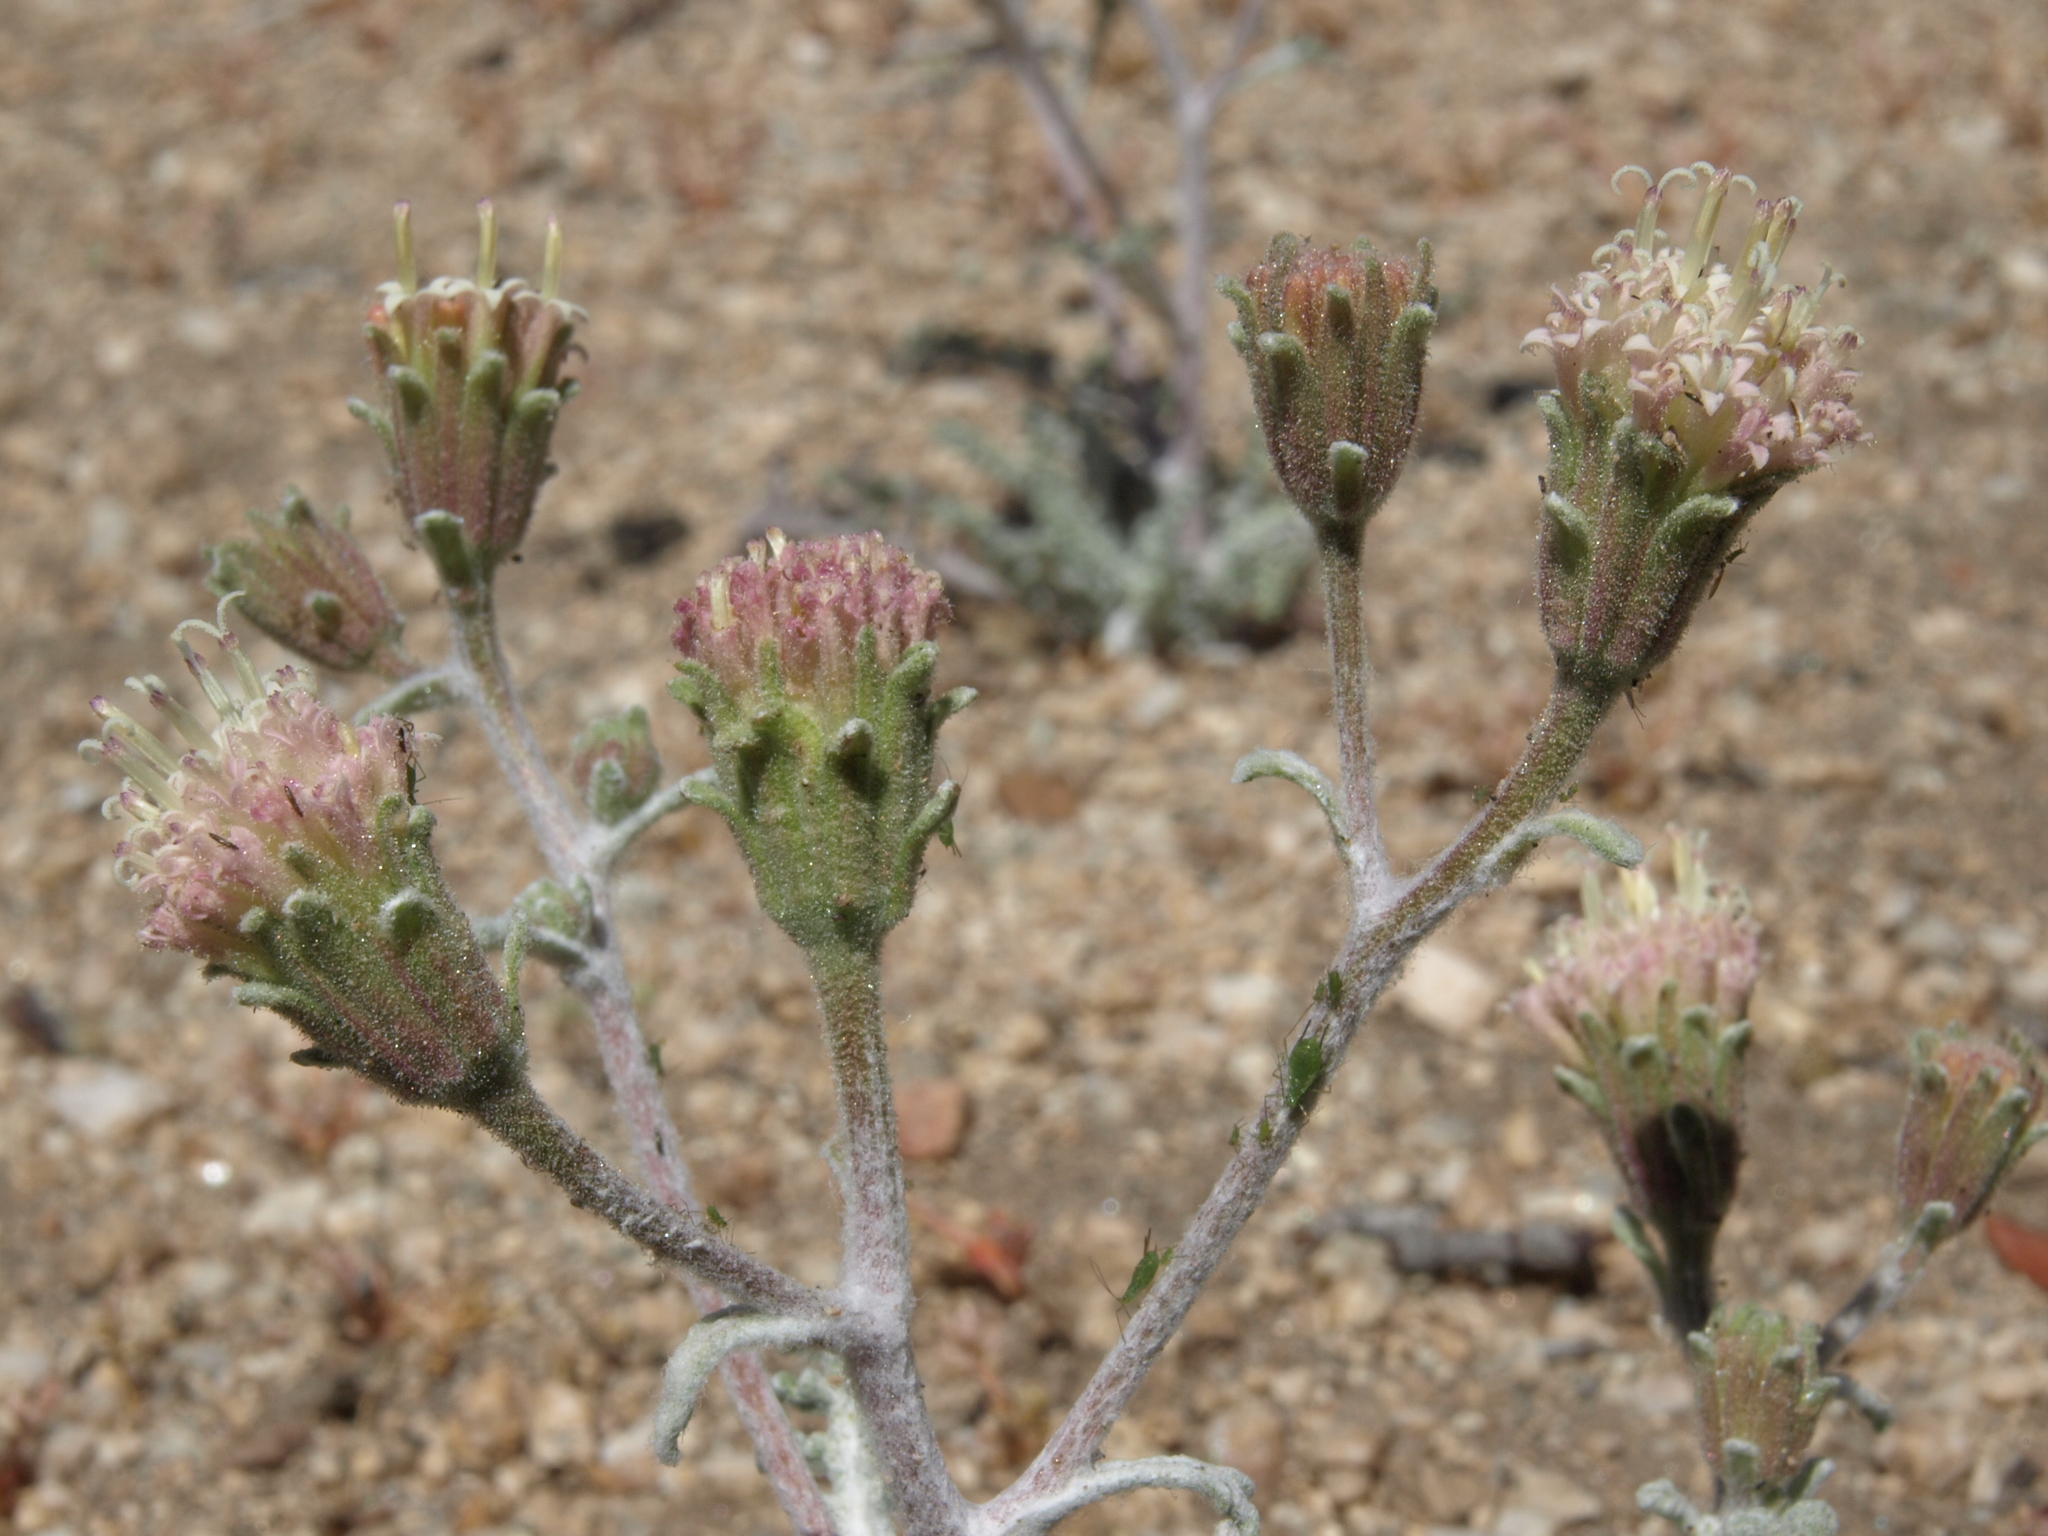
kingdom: Plantae
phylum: Tracheophyta
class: Magnoliopsida
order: Asterales
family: Asteraceae
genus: Chaenactis
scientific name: Chaenactis douglasii
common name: Hoary pincushion
